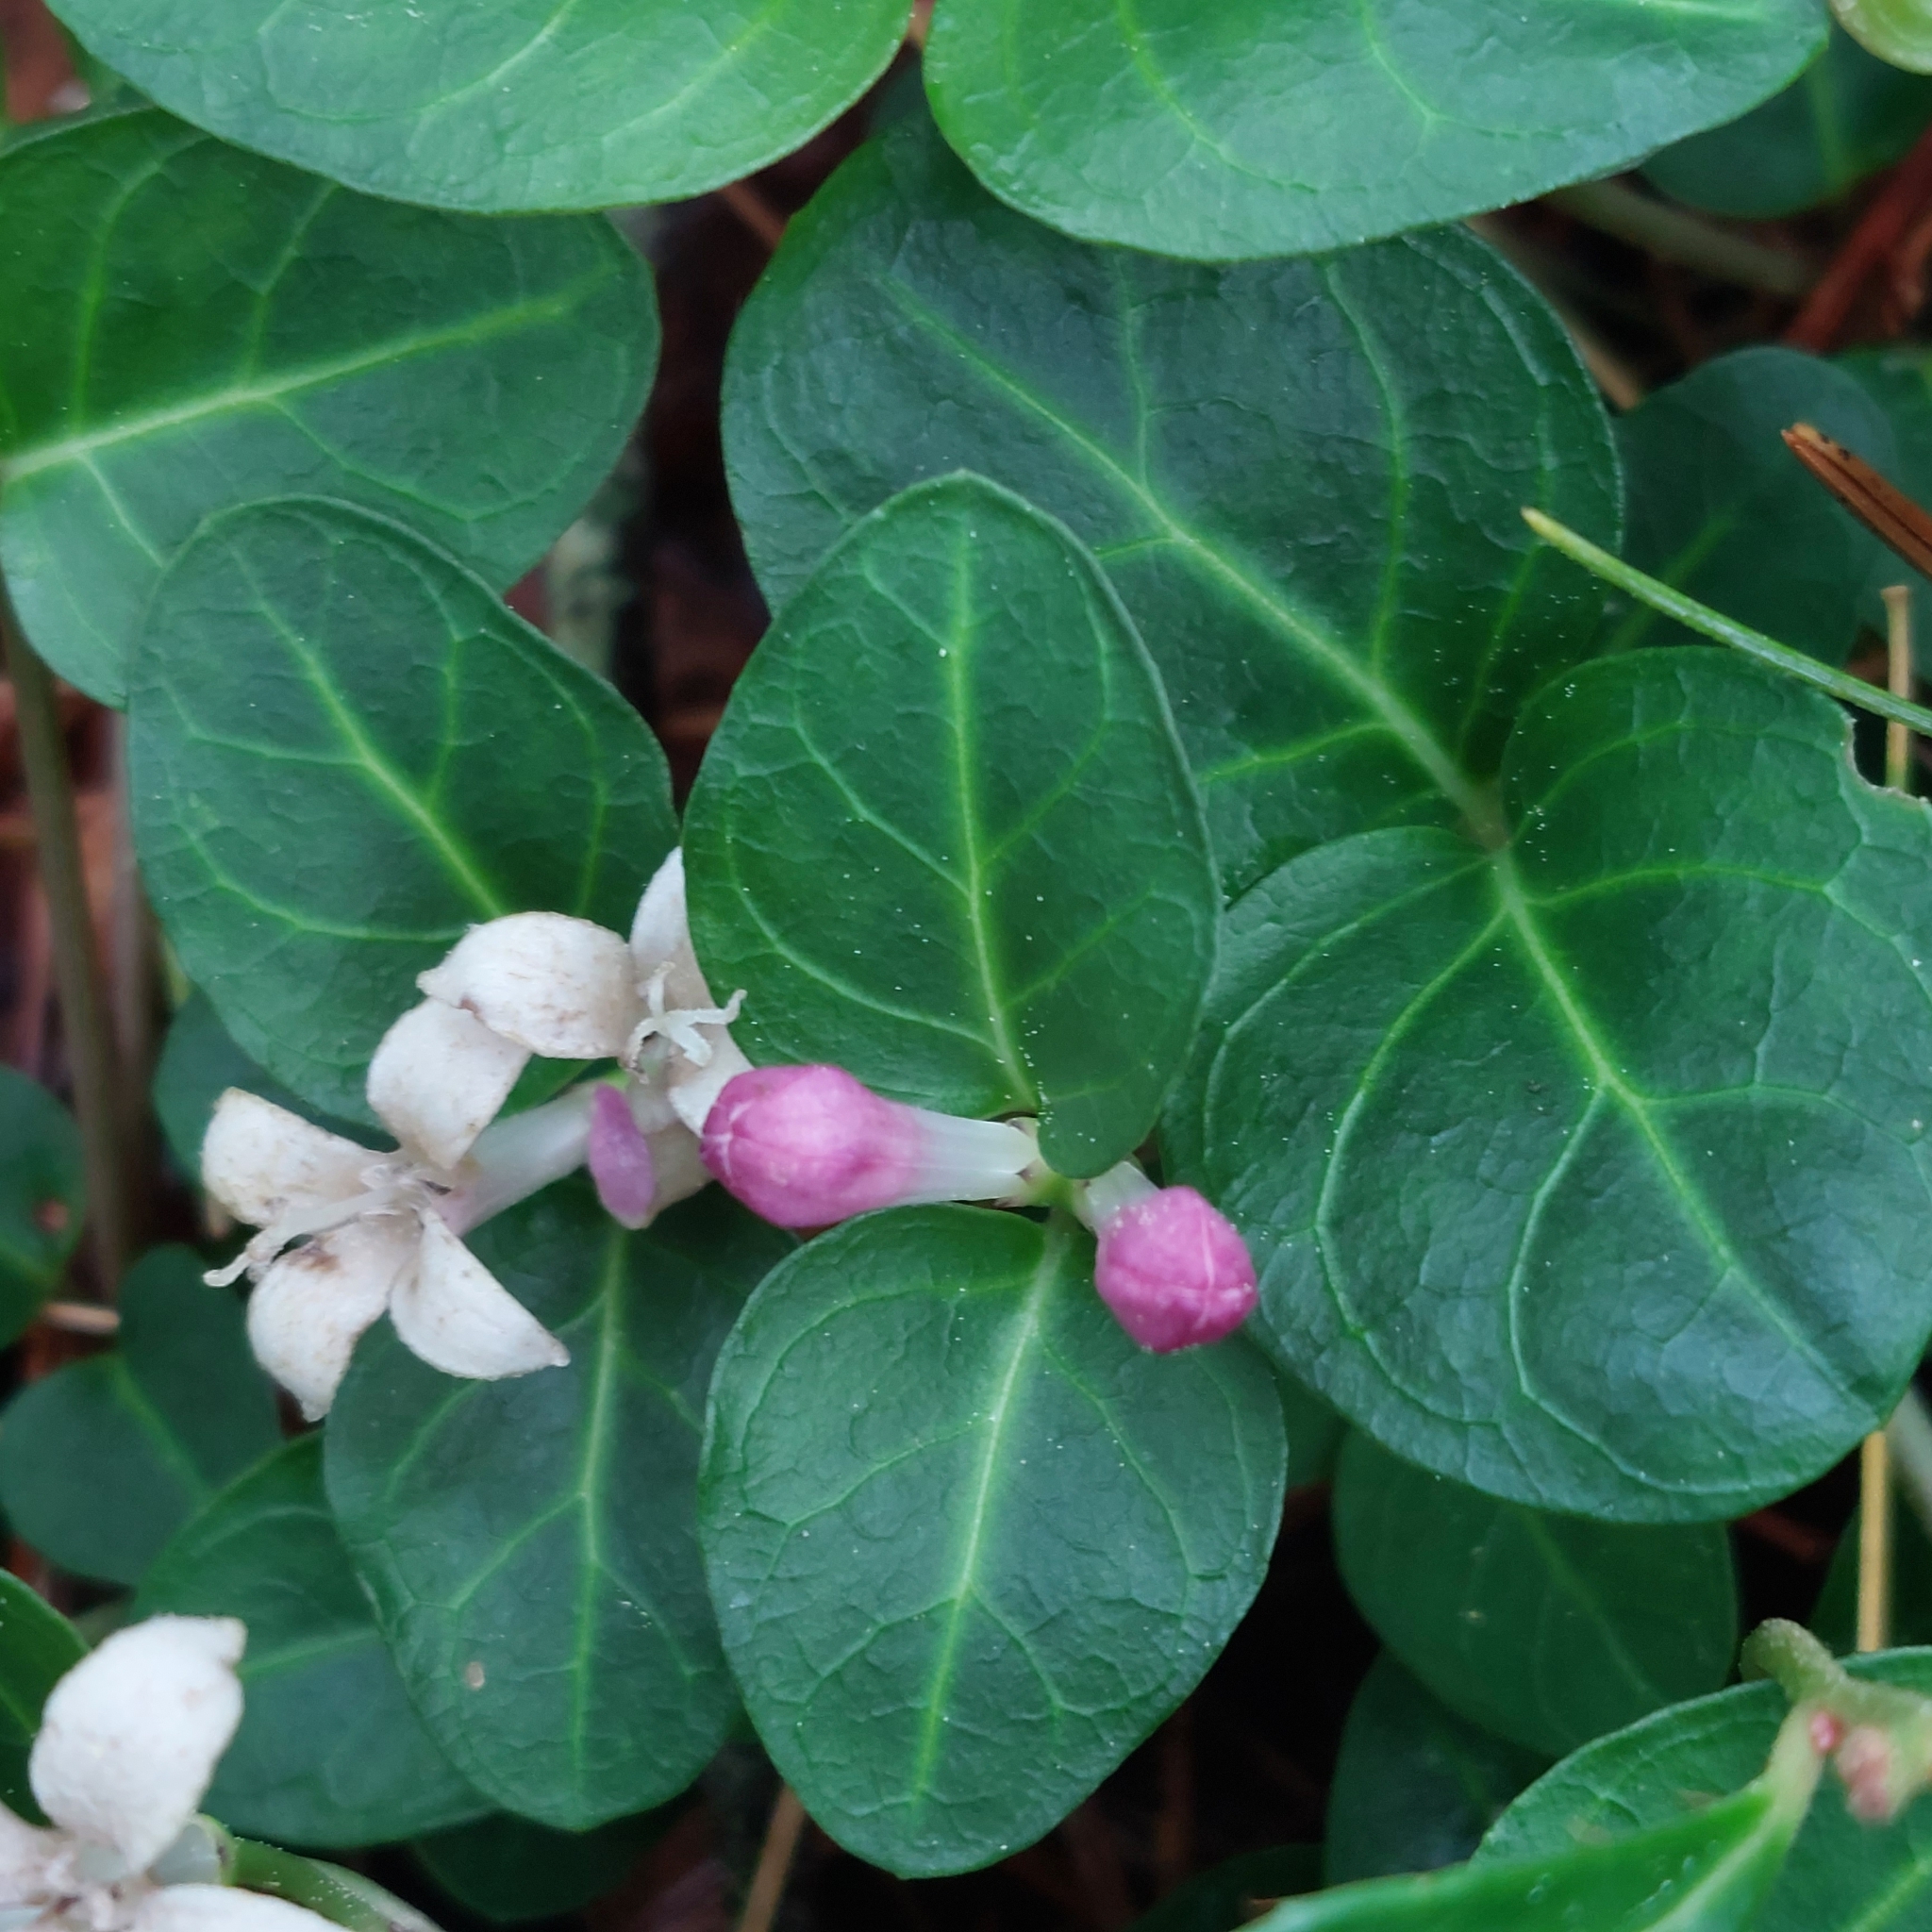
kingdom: Plantae
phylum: Tracheophyta
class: Magnoliopsida
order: Gentianales
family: Rubiaceae
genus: Mitchella
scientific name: Mitchella repens
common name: Partridge-berry
